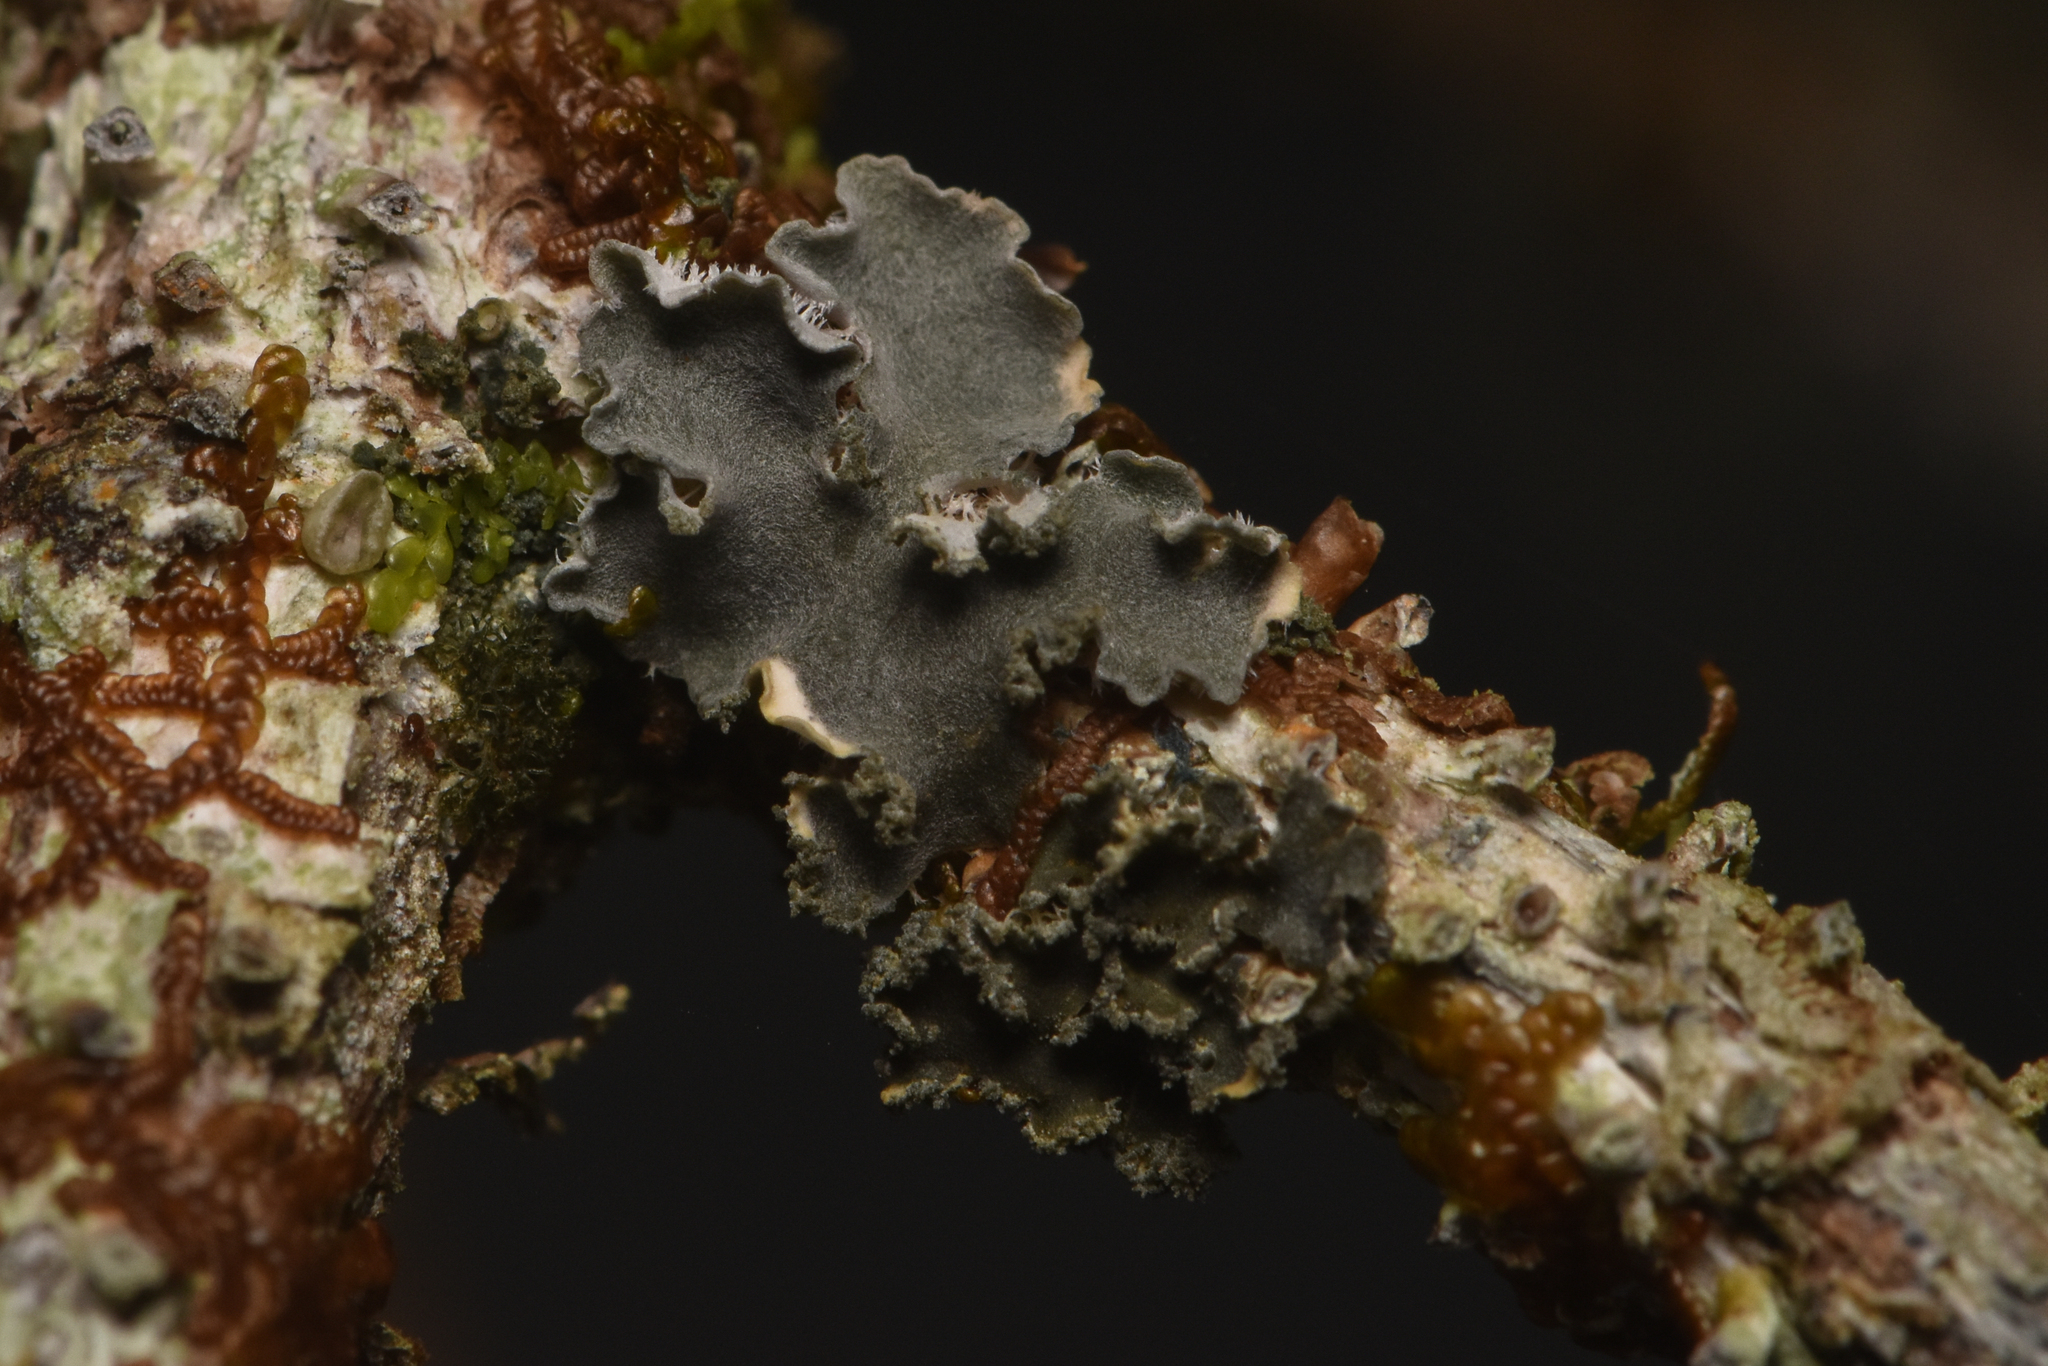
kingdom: Fungi
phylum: Ascomycota
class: Lecanoromycetes
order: Peltigerales
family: Pannariaceae
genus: Leioderma
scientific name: Leioderma sorediatum
